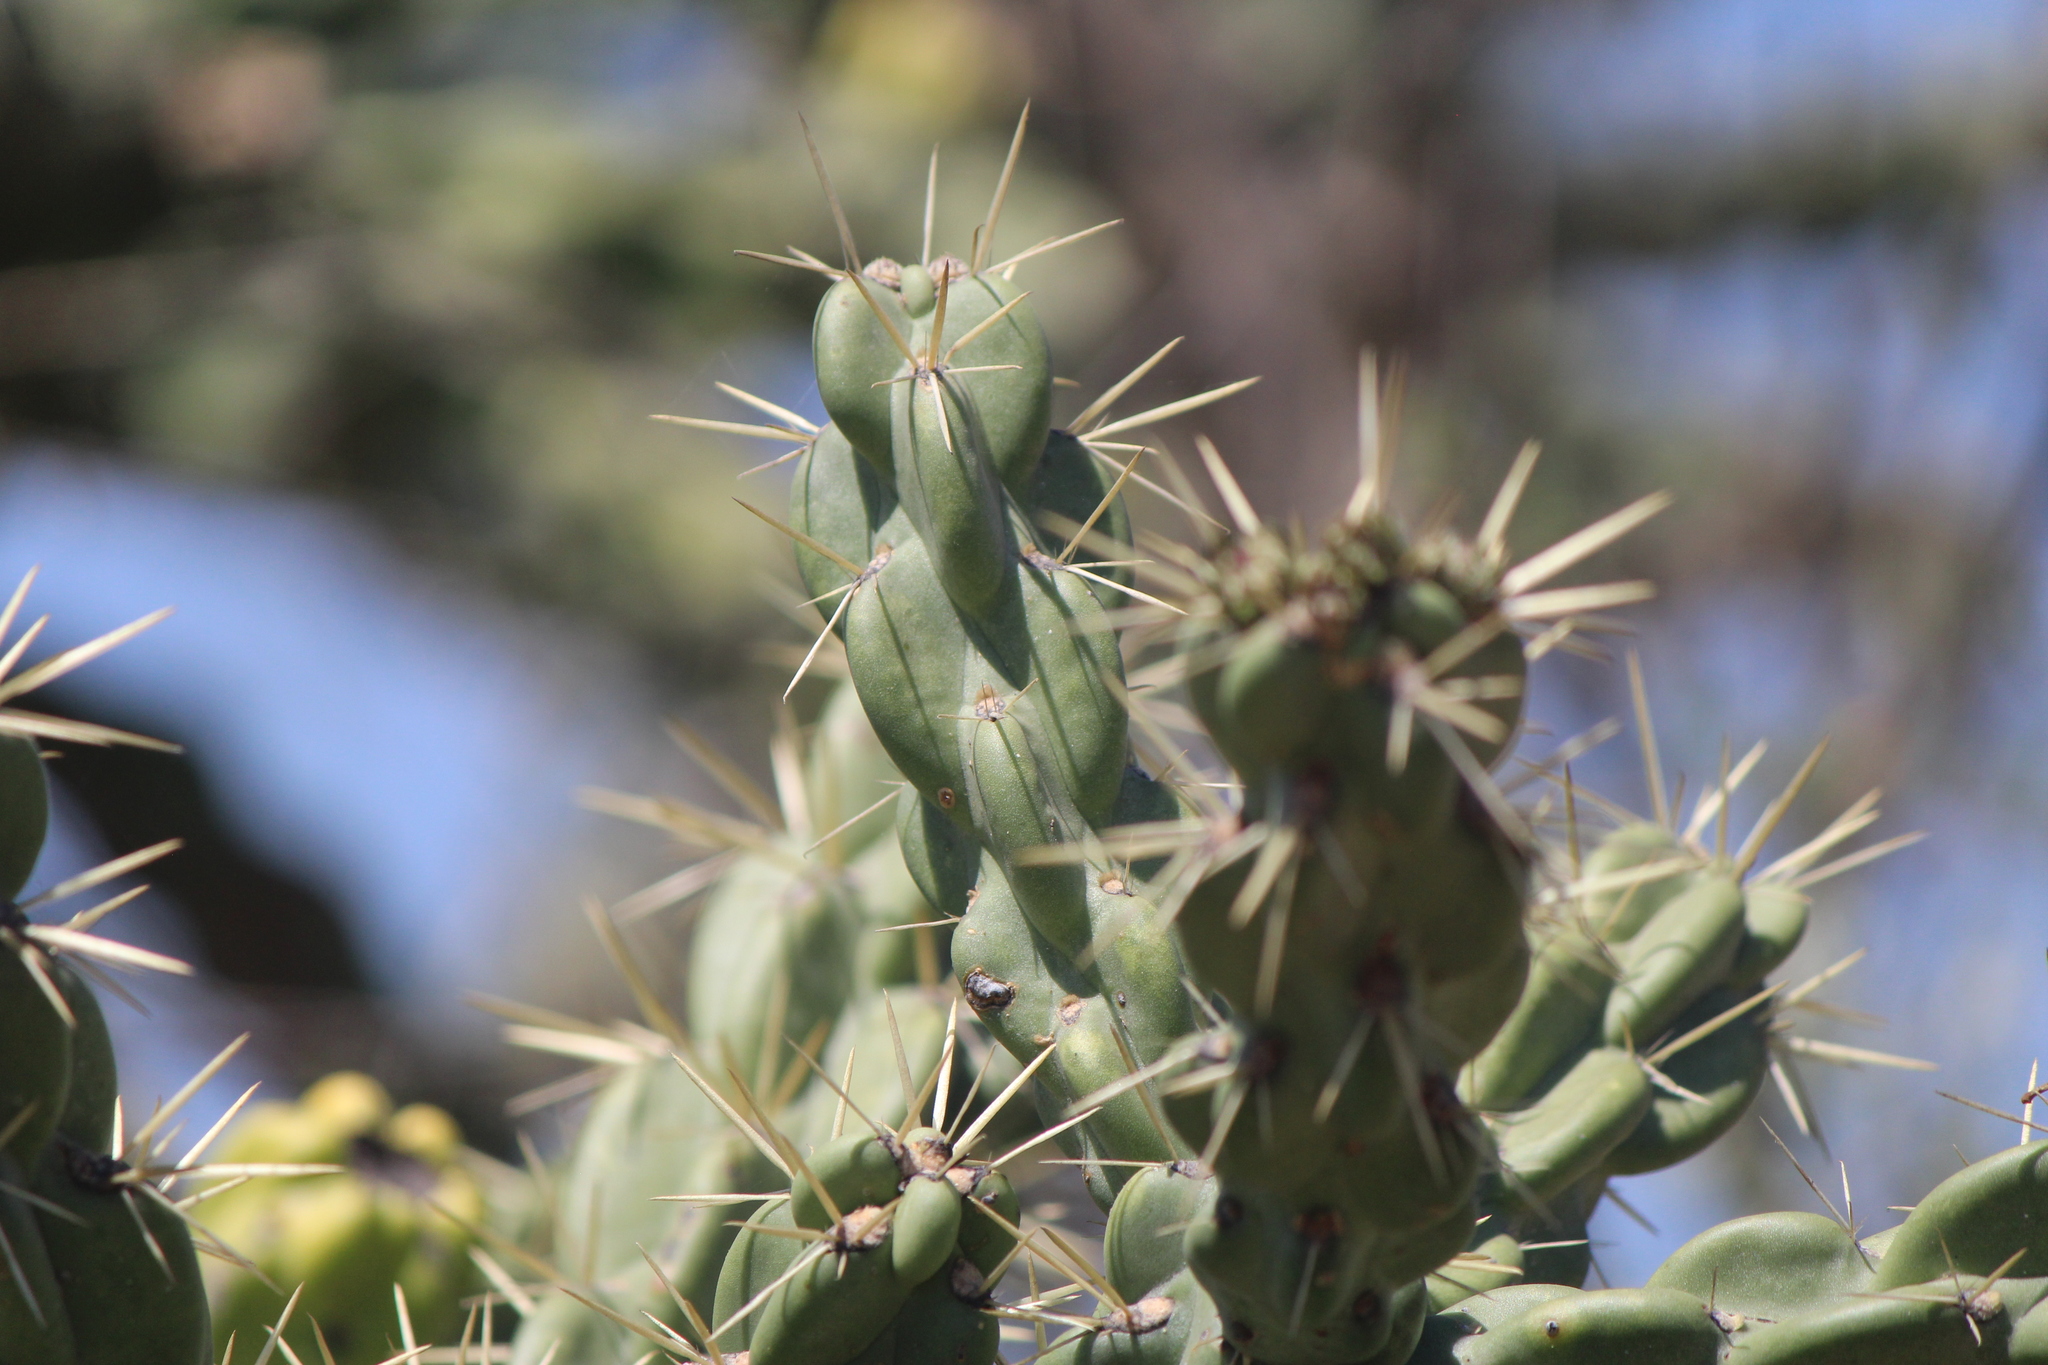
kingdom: Plantae
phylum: Tracheophyta
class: Magnoliopsida
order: Caryophyllales
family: Cactaceae
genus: Cylindropuntia
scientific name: Cylindropuntia imbricata
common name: Candelabrum cactus
